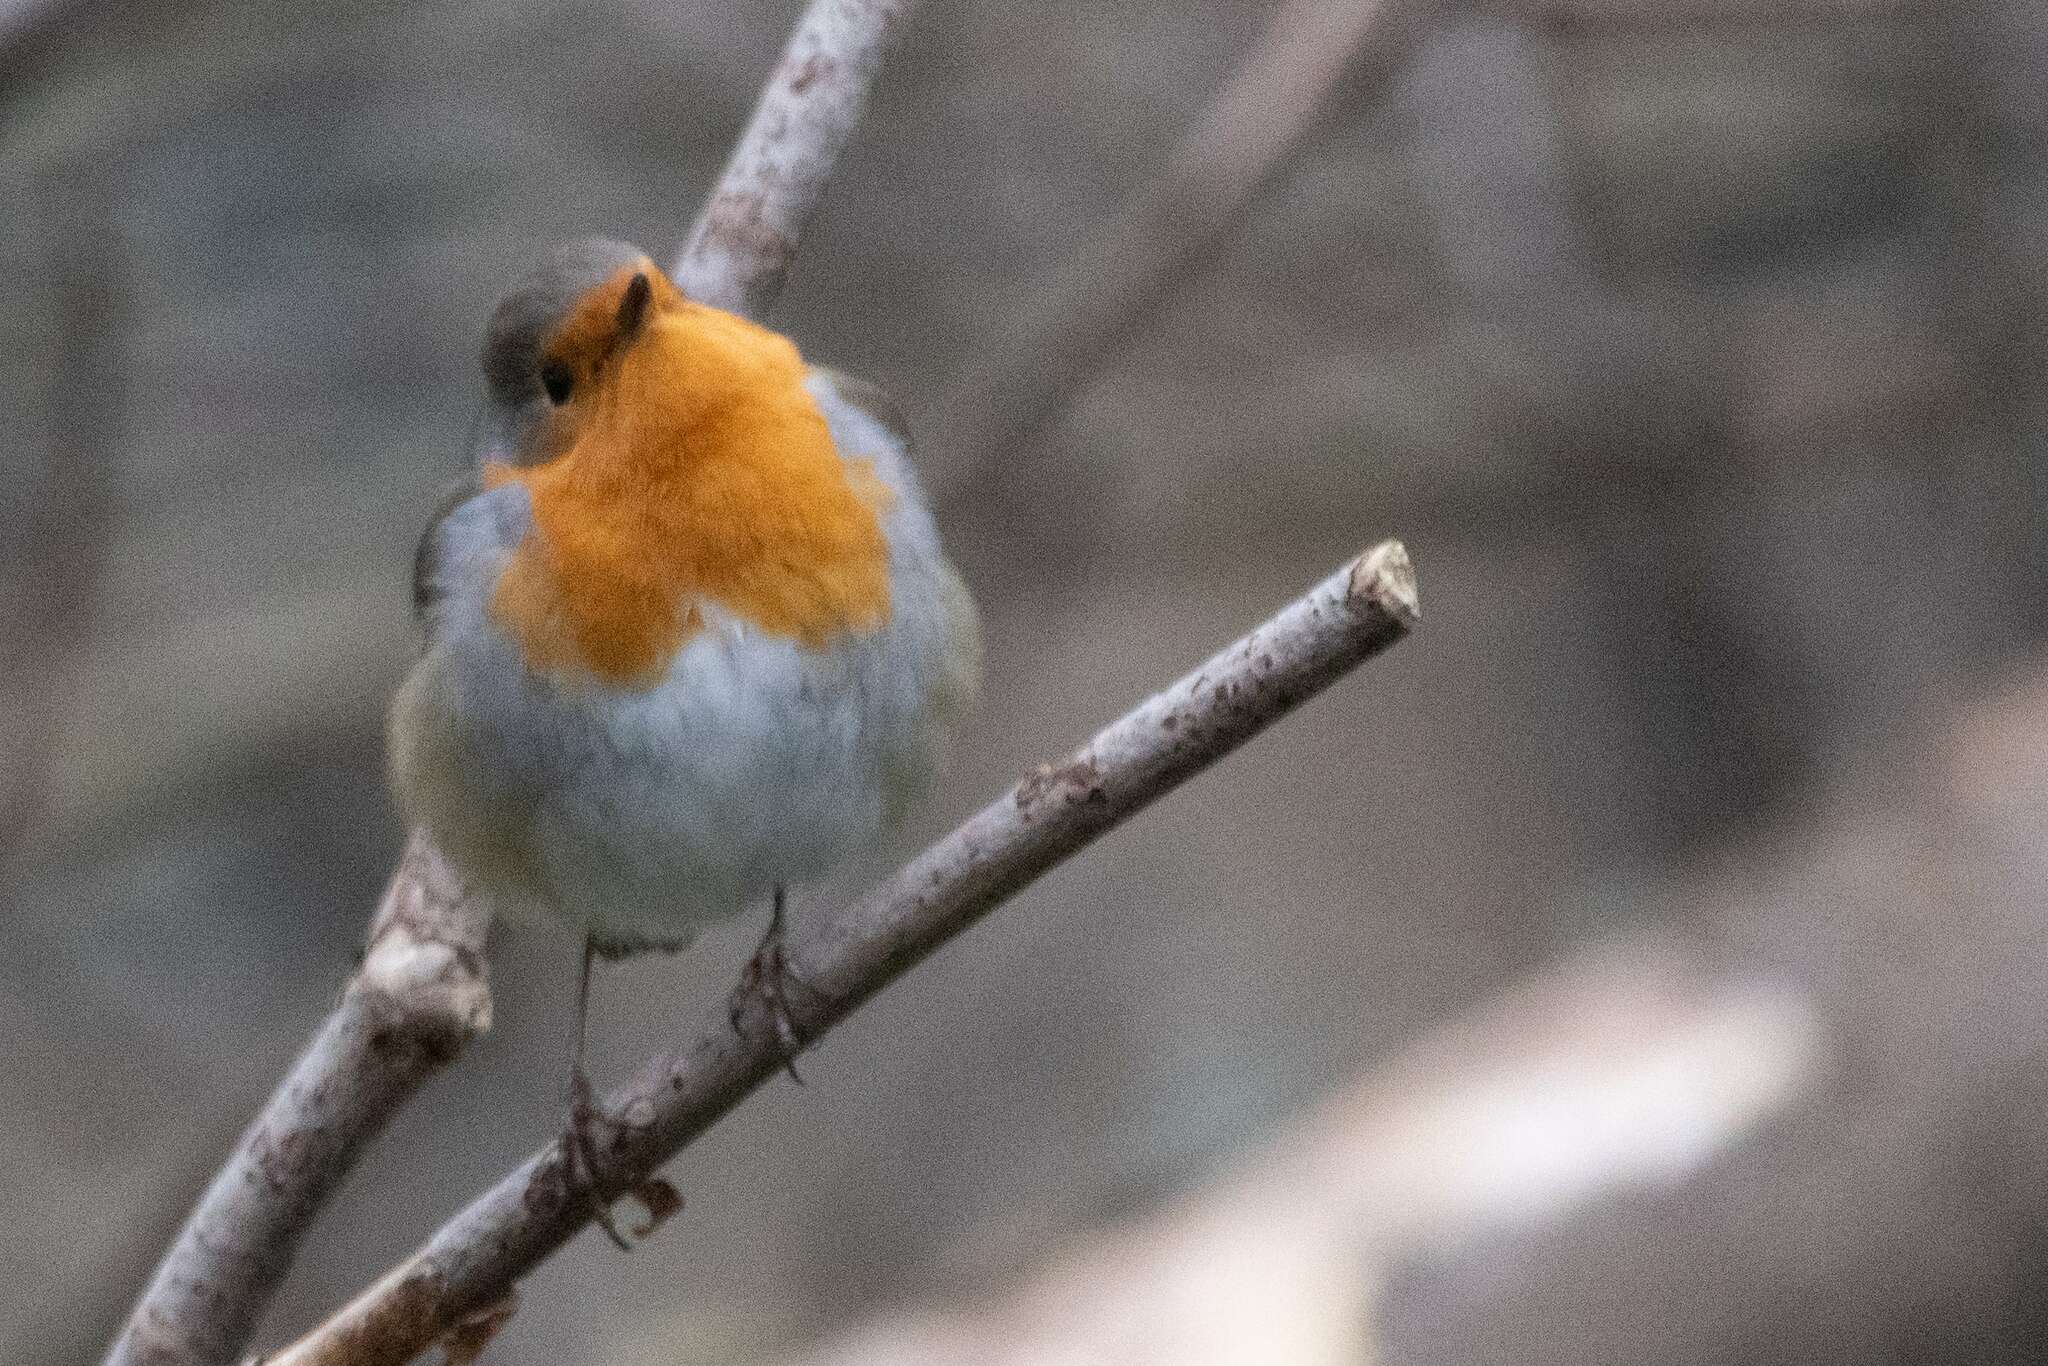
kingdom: Animalia
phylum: Chordata
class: Aves
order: Passeriformes
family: Muscicapidae
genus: Erithacus
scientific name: Erithacus rubecula
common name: European robin
